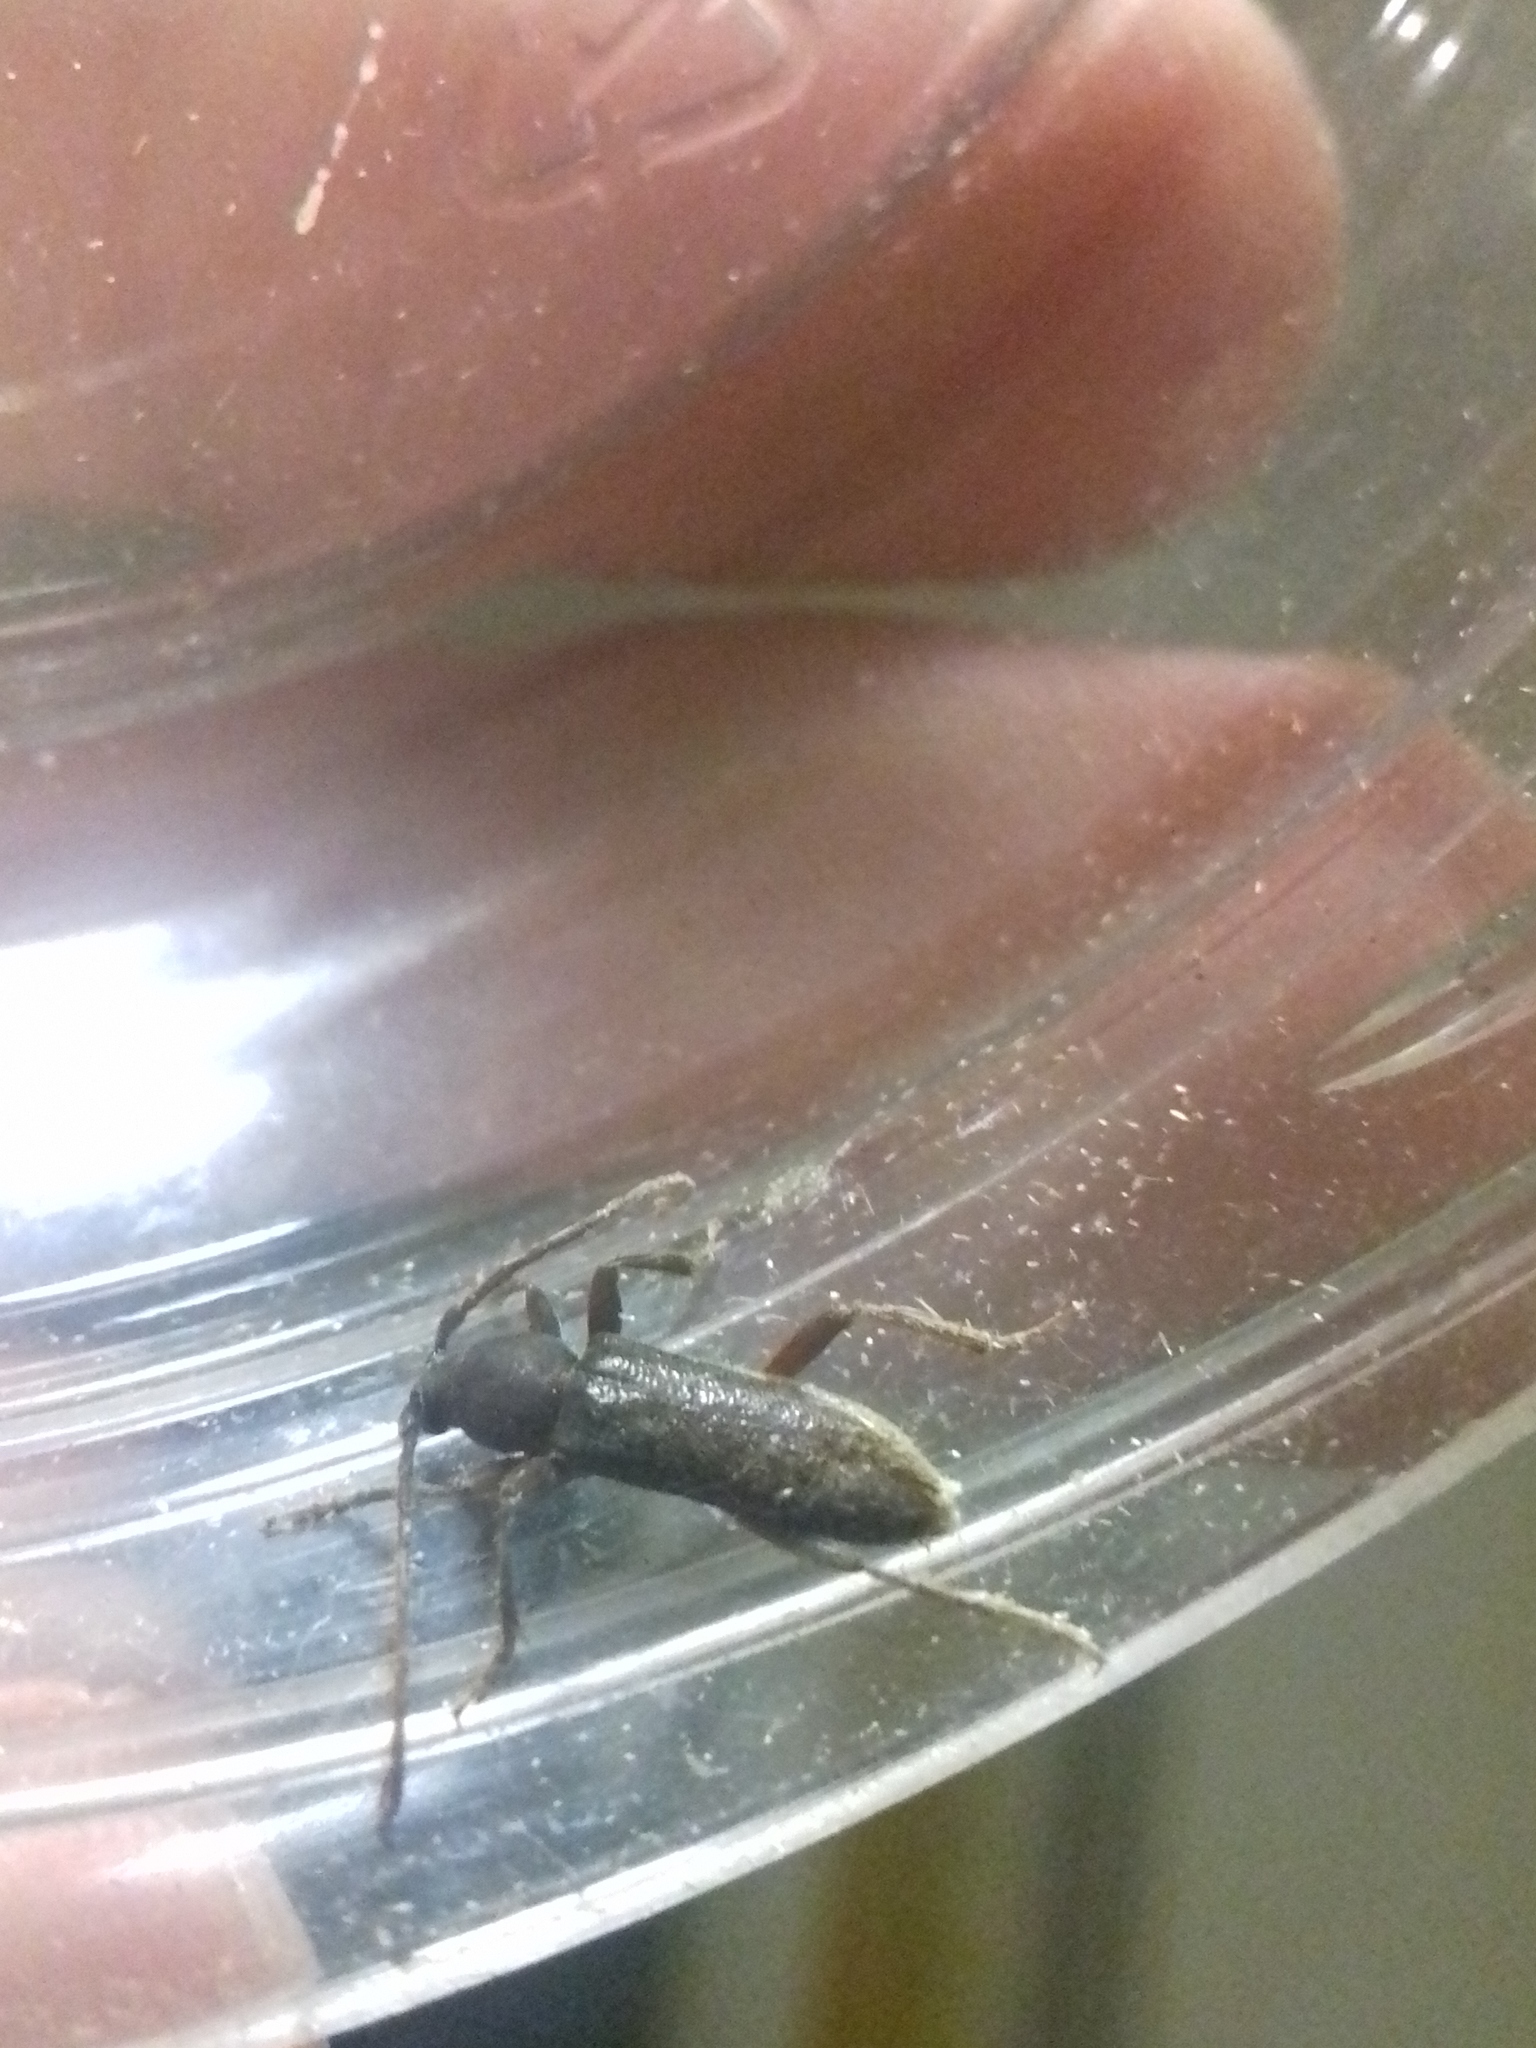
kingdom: Animalia
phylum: Arthropoda
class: Insecta
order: Coleoptera
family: Cerambycidae
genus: Trichoferus
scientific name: Trichoferus campestris
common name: Velvet long horned beetle
